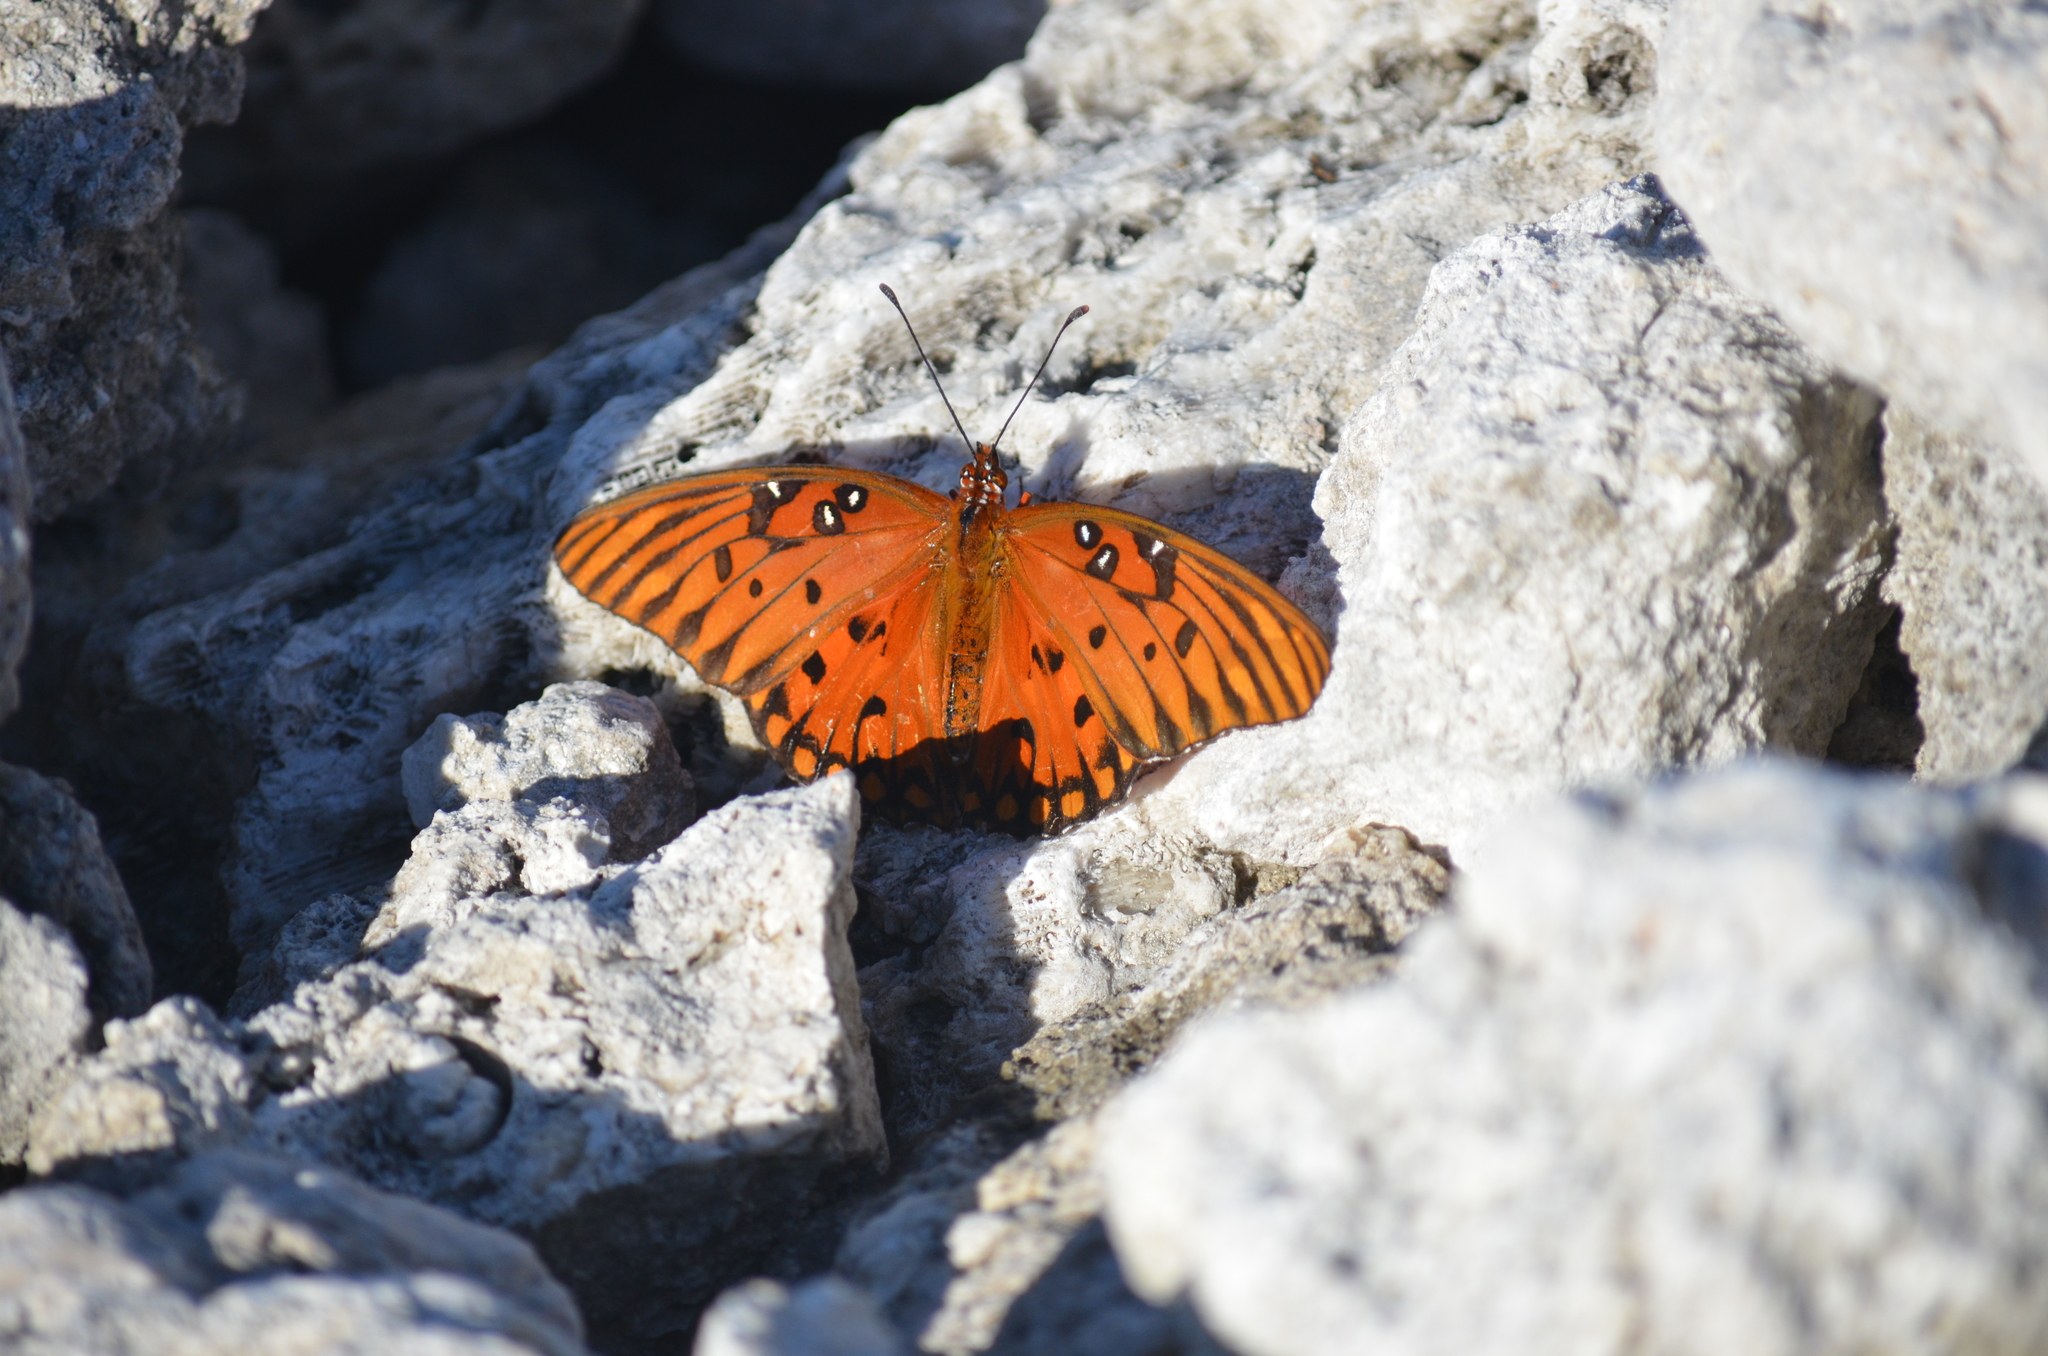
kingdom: Animalia
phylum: Arthropoda
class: Insecta
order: Lepidoptera
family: Nymphalidae
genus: Dione
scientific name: Dione vanillae
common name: Gulf fritillary
